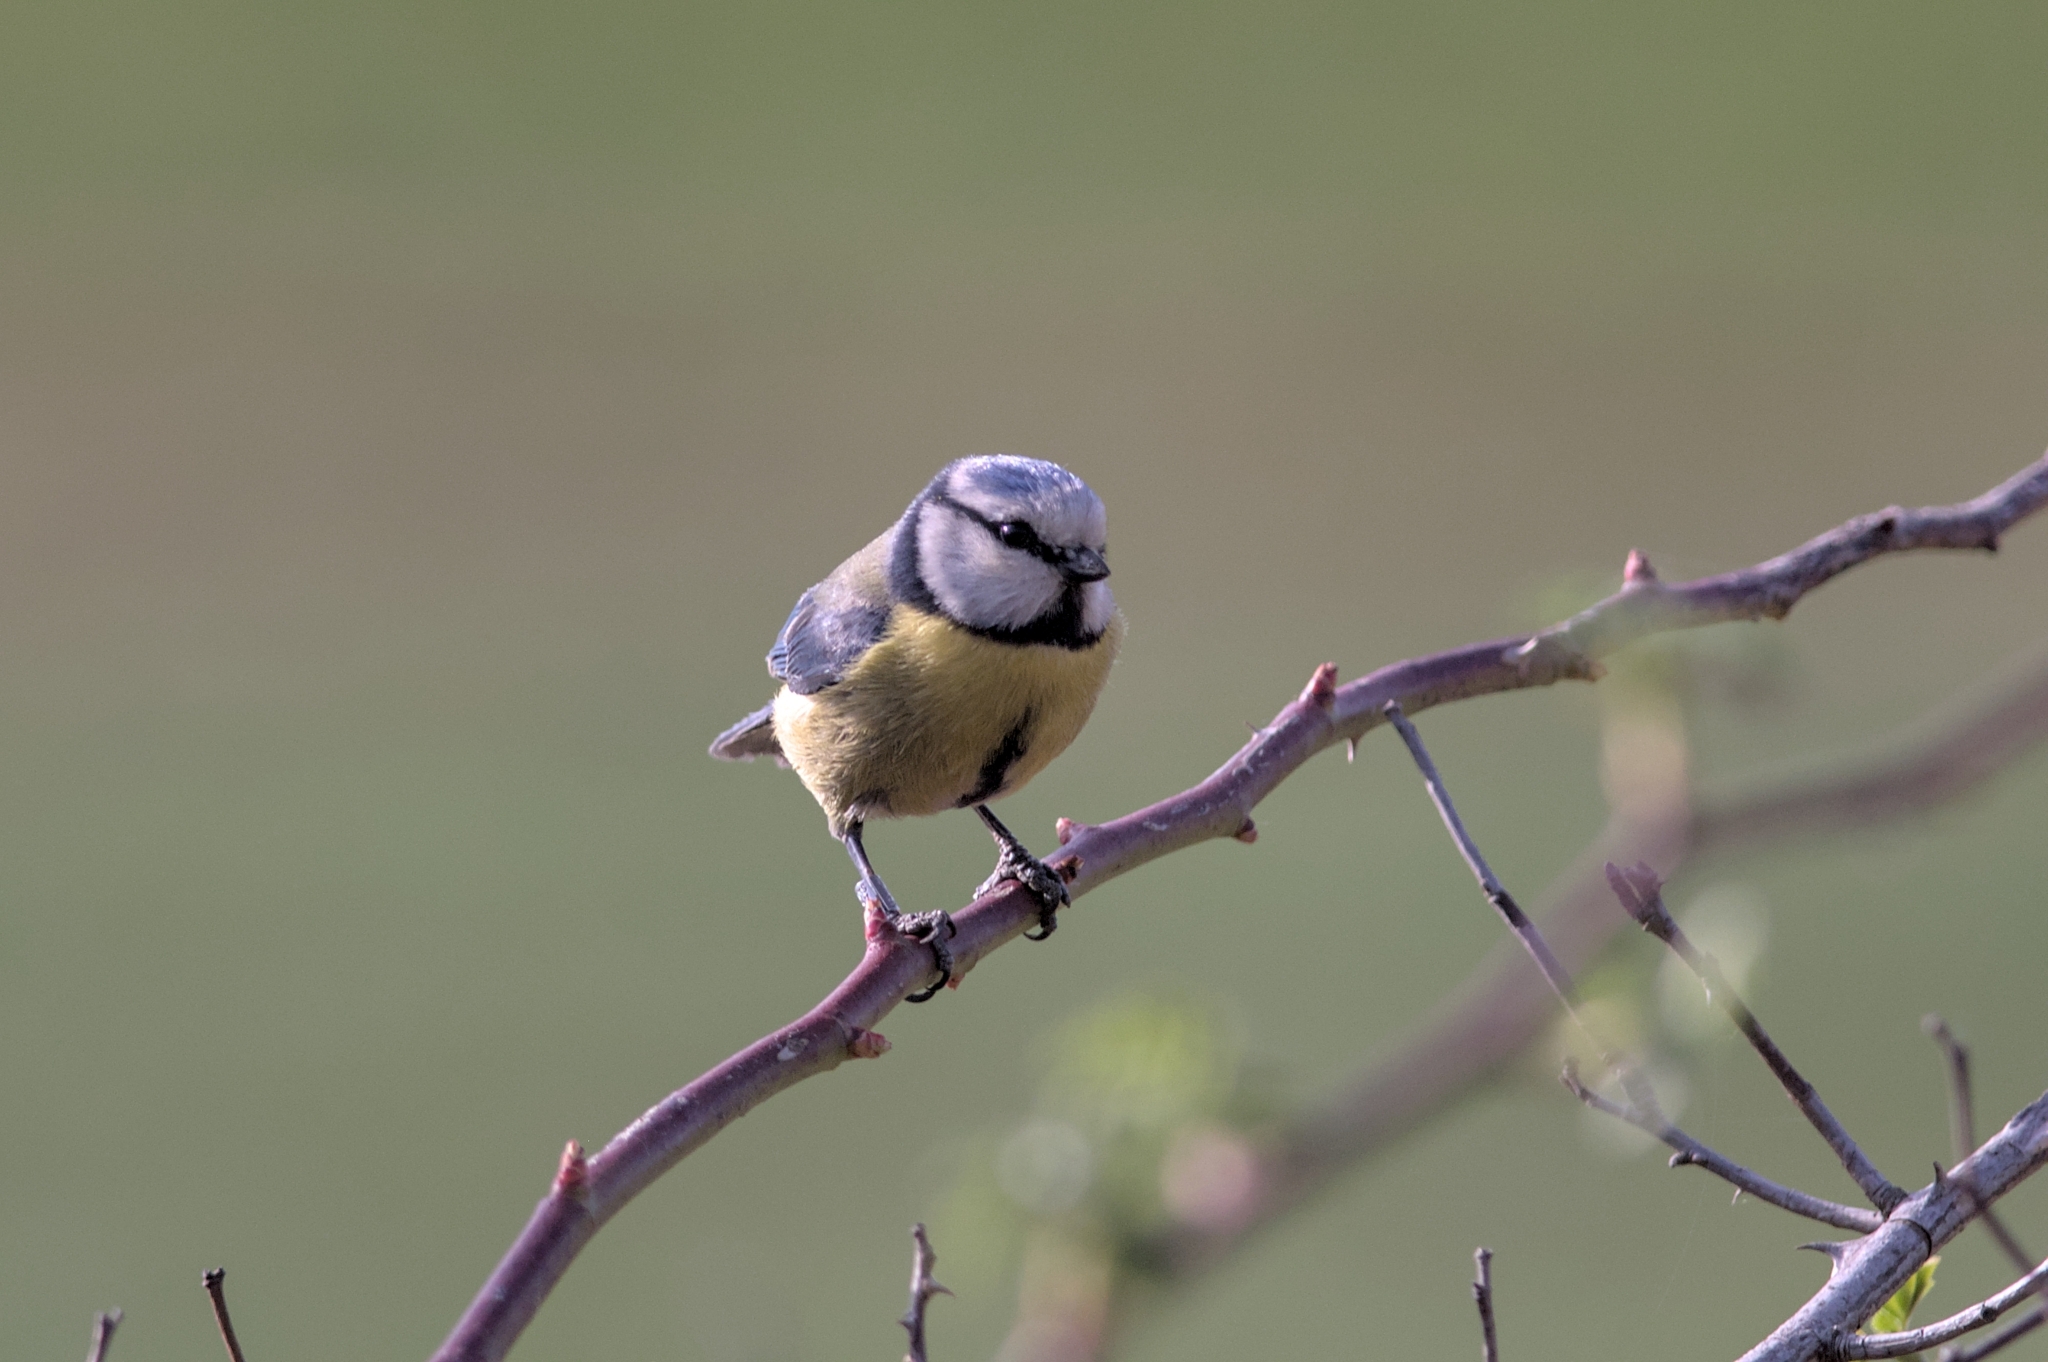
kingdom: Animalia
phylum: Chordata
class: Aves
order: Passeriformes
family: Paridae
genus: Cyanistes
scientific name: Cyanistes caeruleus
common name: Eurasian blue tit
